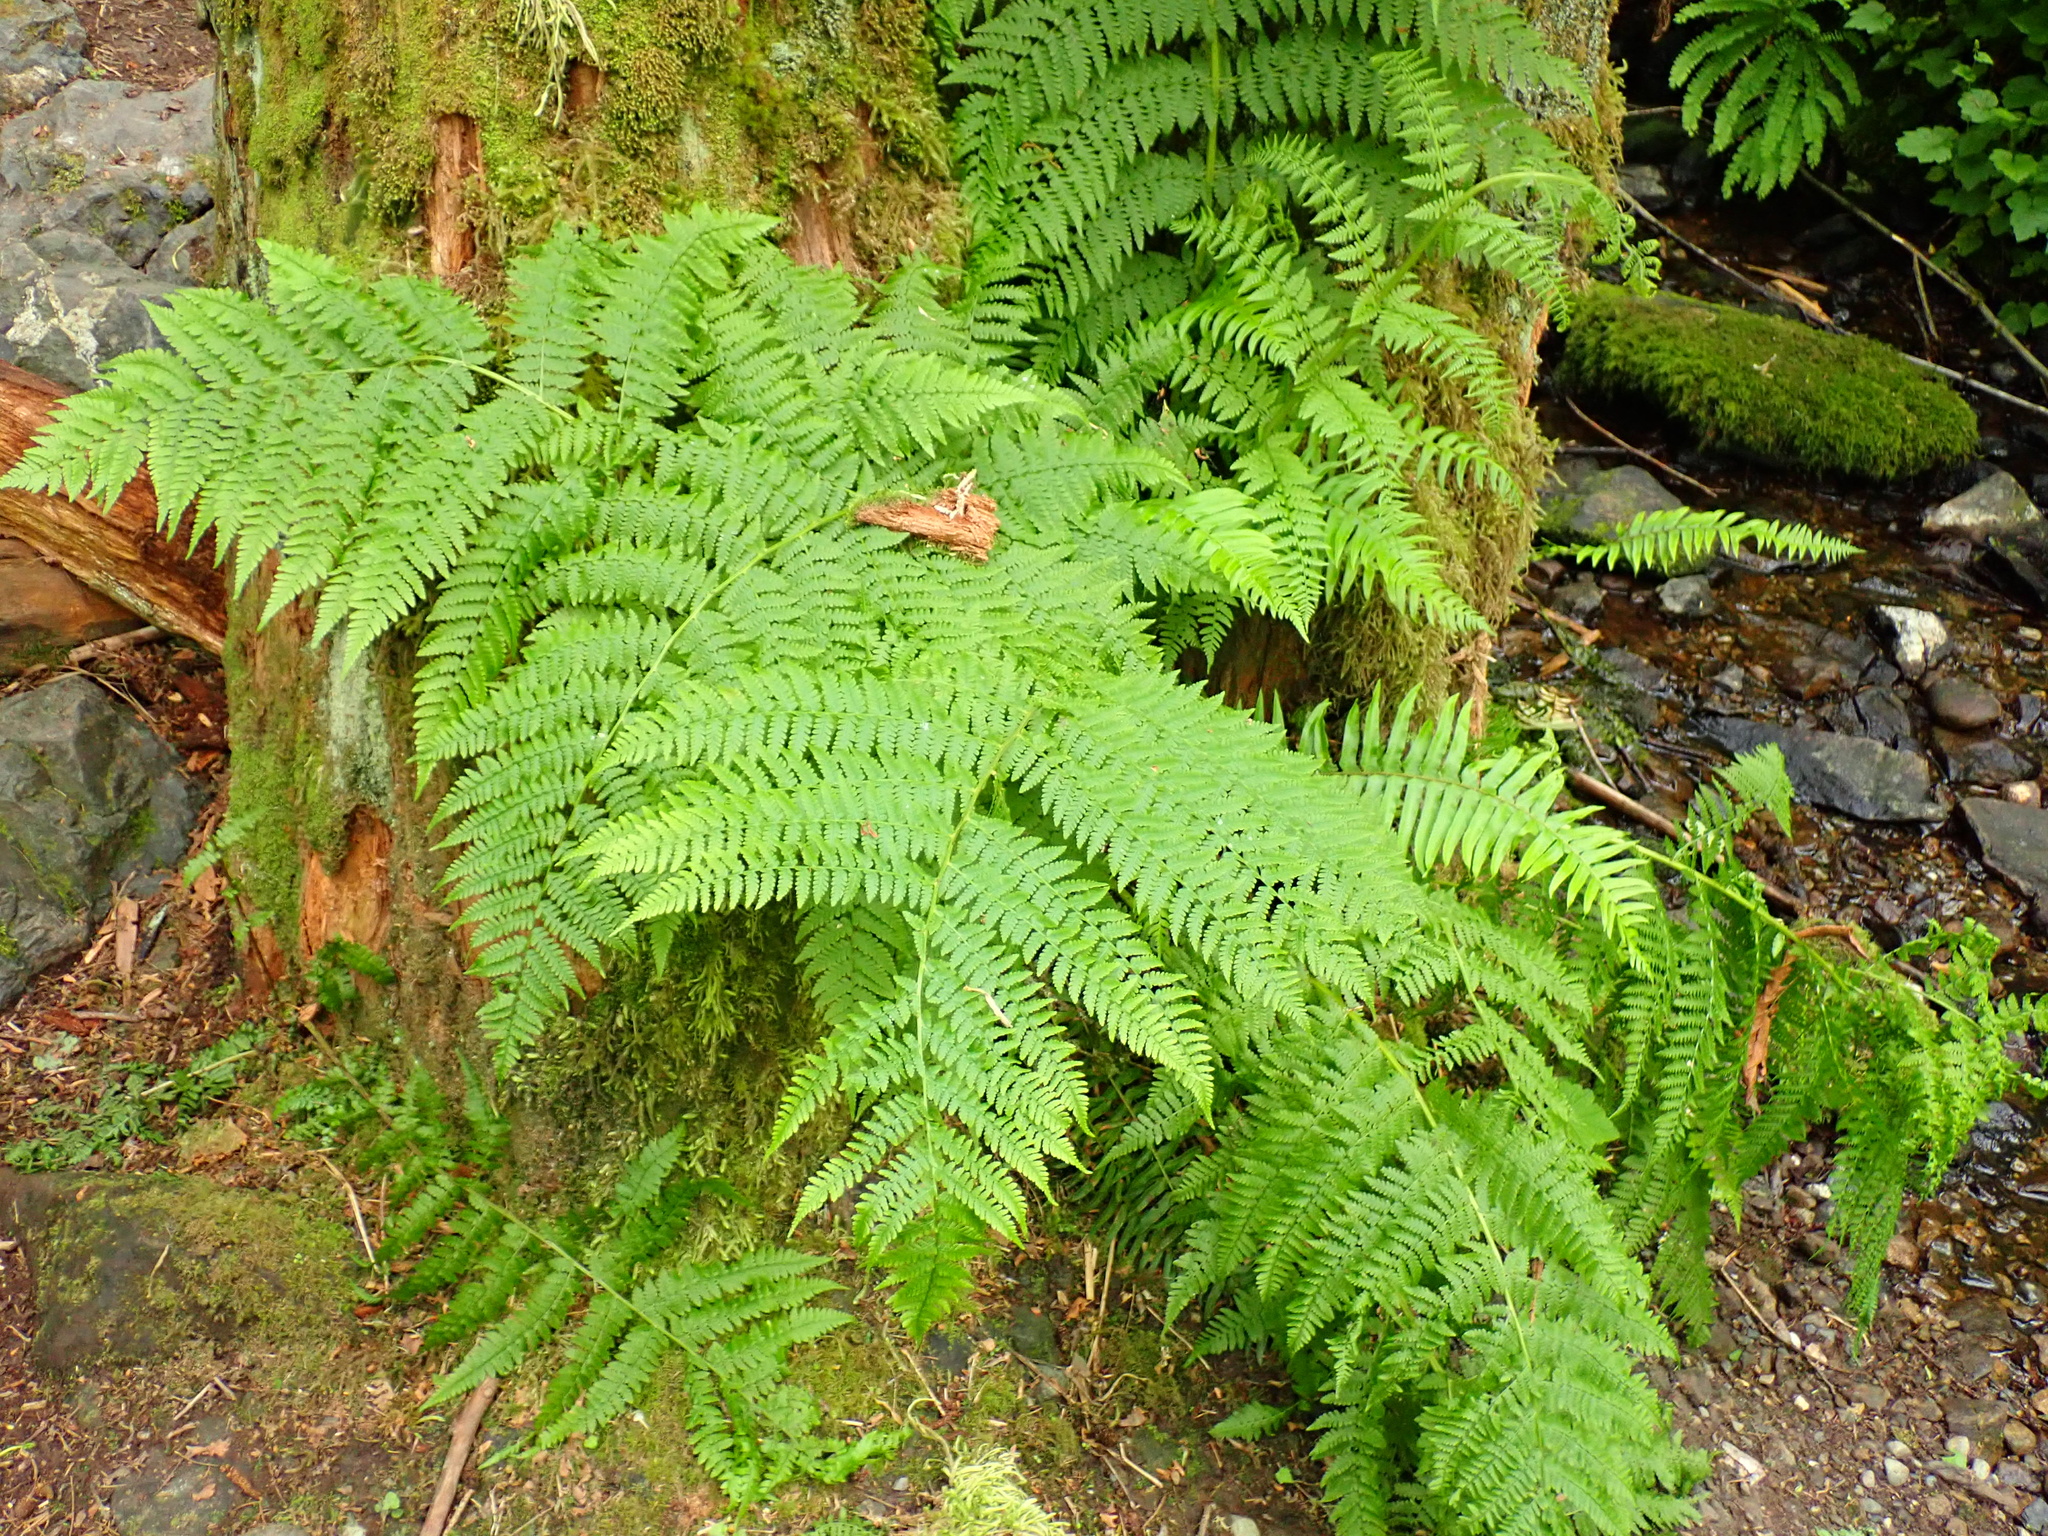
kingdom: Plantae
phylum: Tracheophyta
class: Polypodiopsida
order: Polypodiales
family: Athyriaceae
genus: Athyrium
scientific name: Athyrium filix-femina
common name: Lady fern
